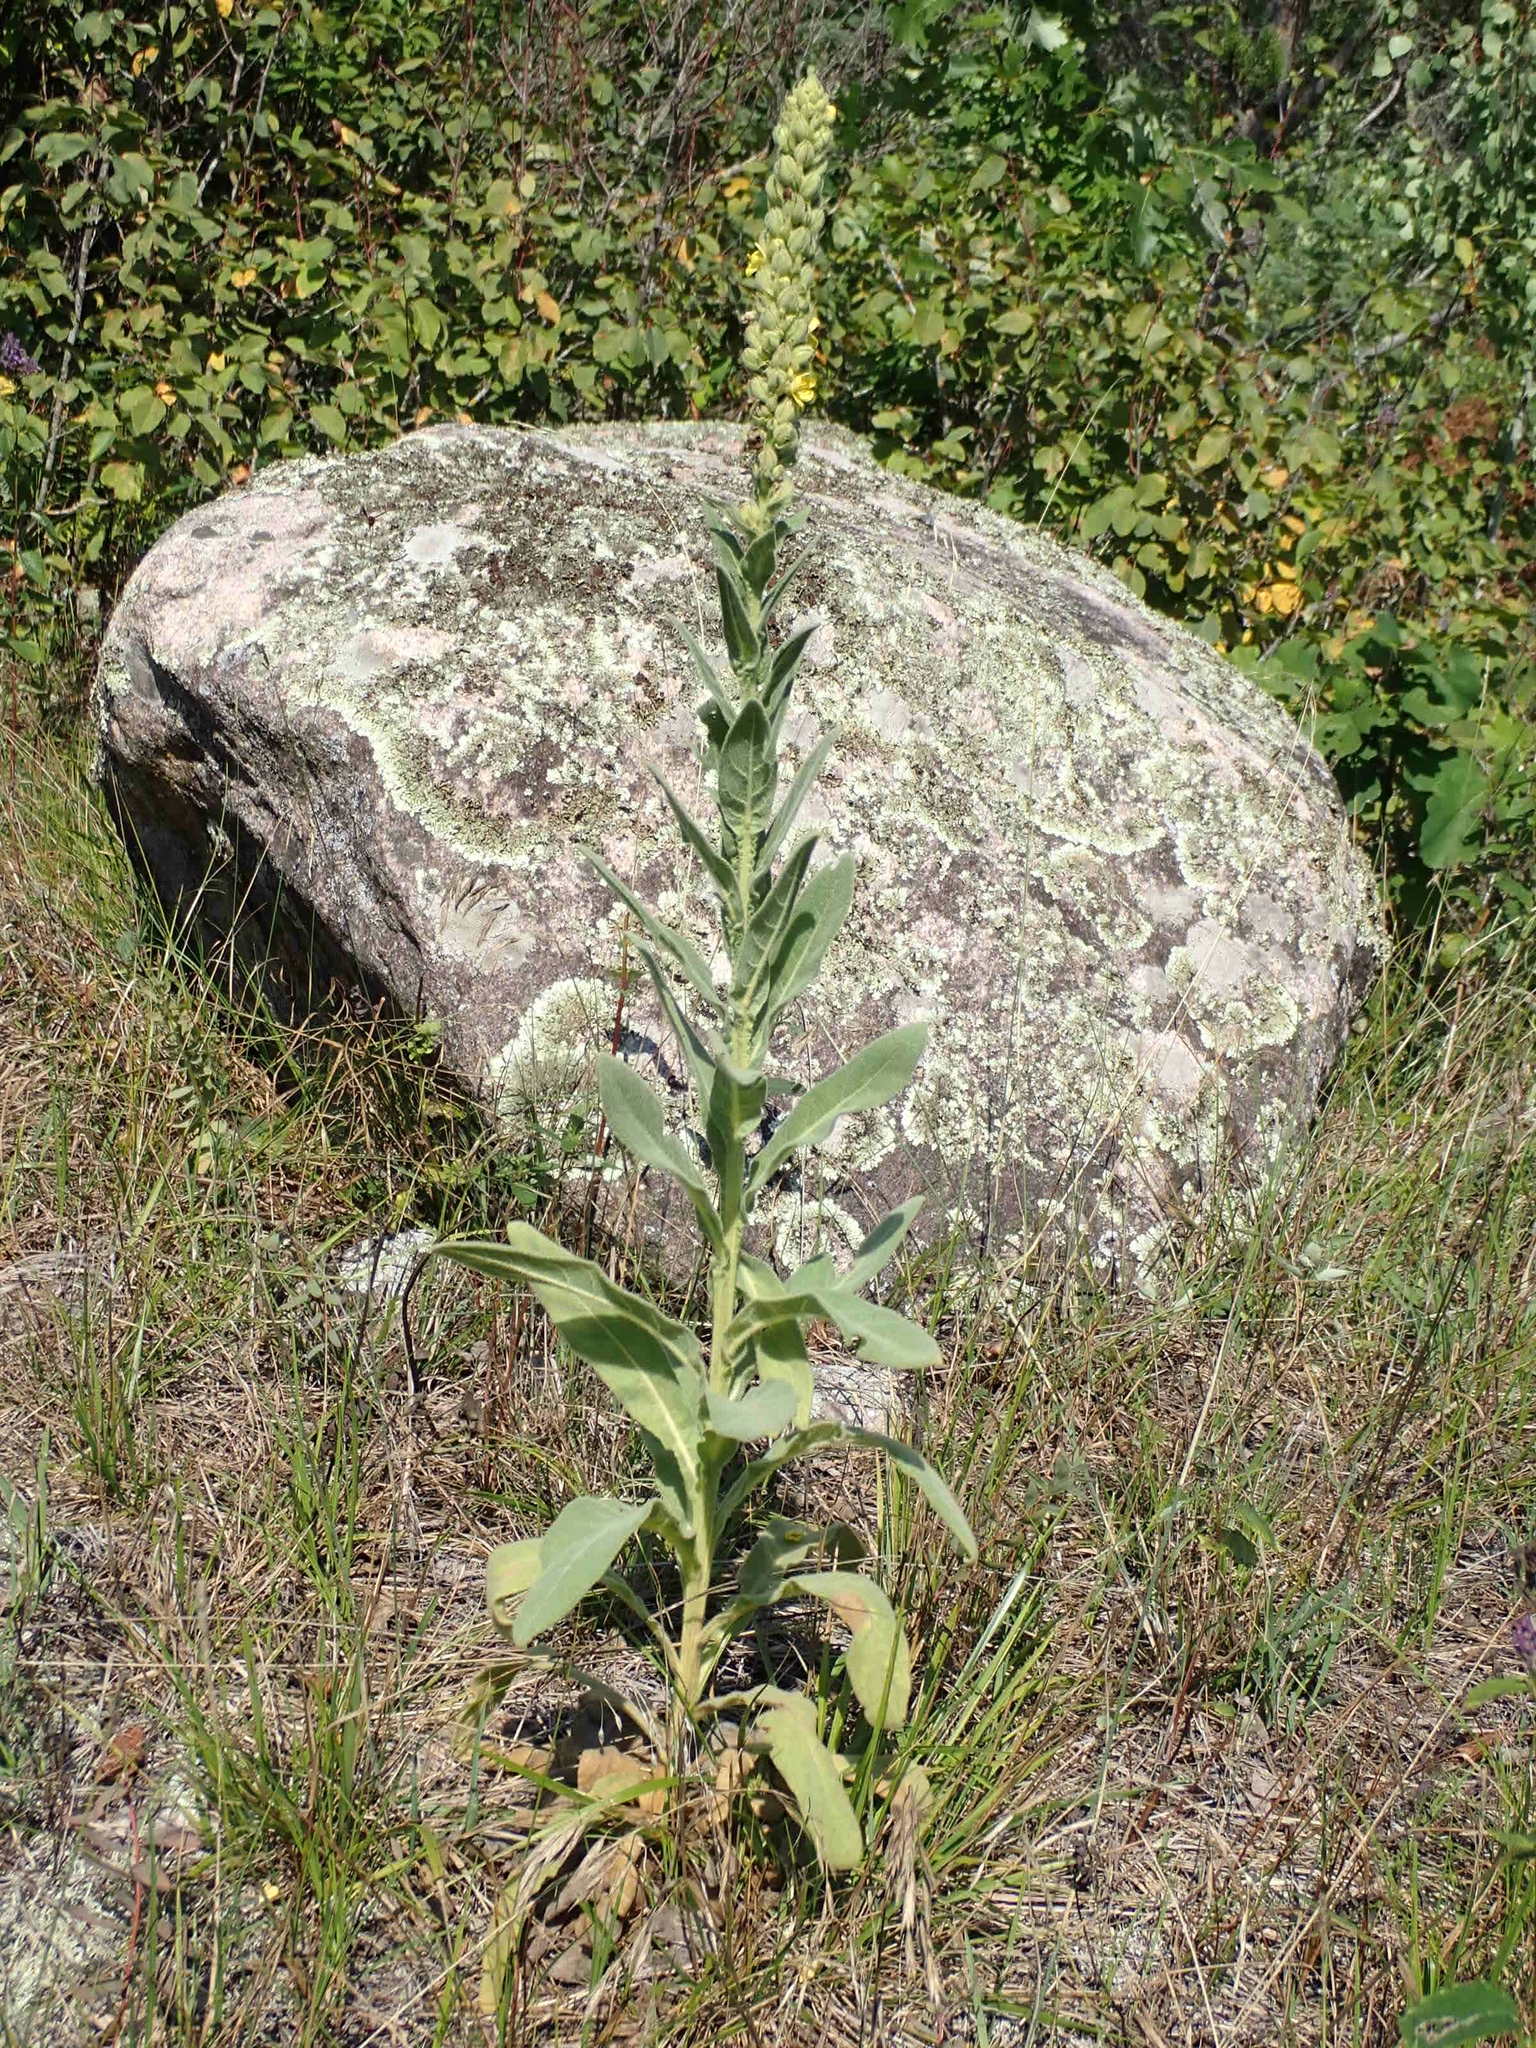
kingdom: Plantae
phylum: Tracheophyta
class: Magnoliopsida
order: Lamiales
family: Scrophulariaceae
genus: Verbascum
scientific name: Verbascum thapsus
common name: Common mullein
